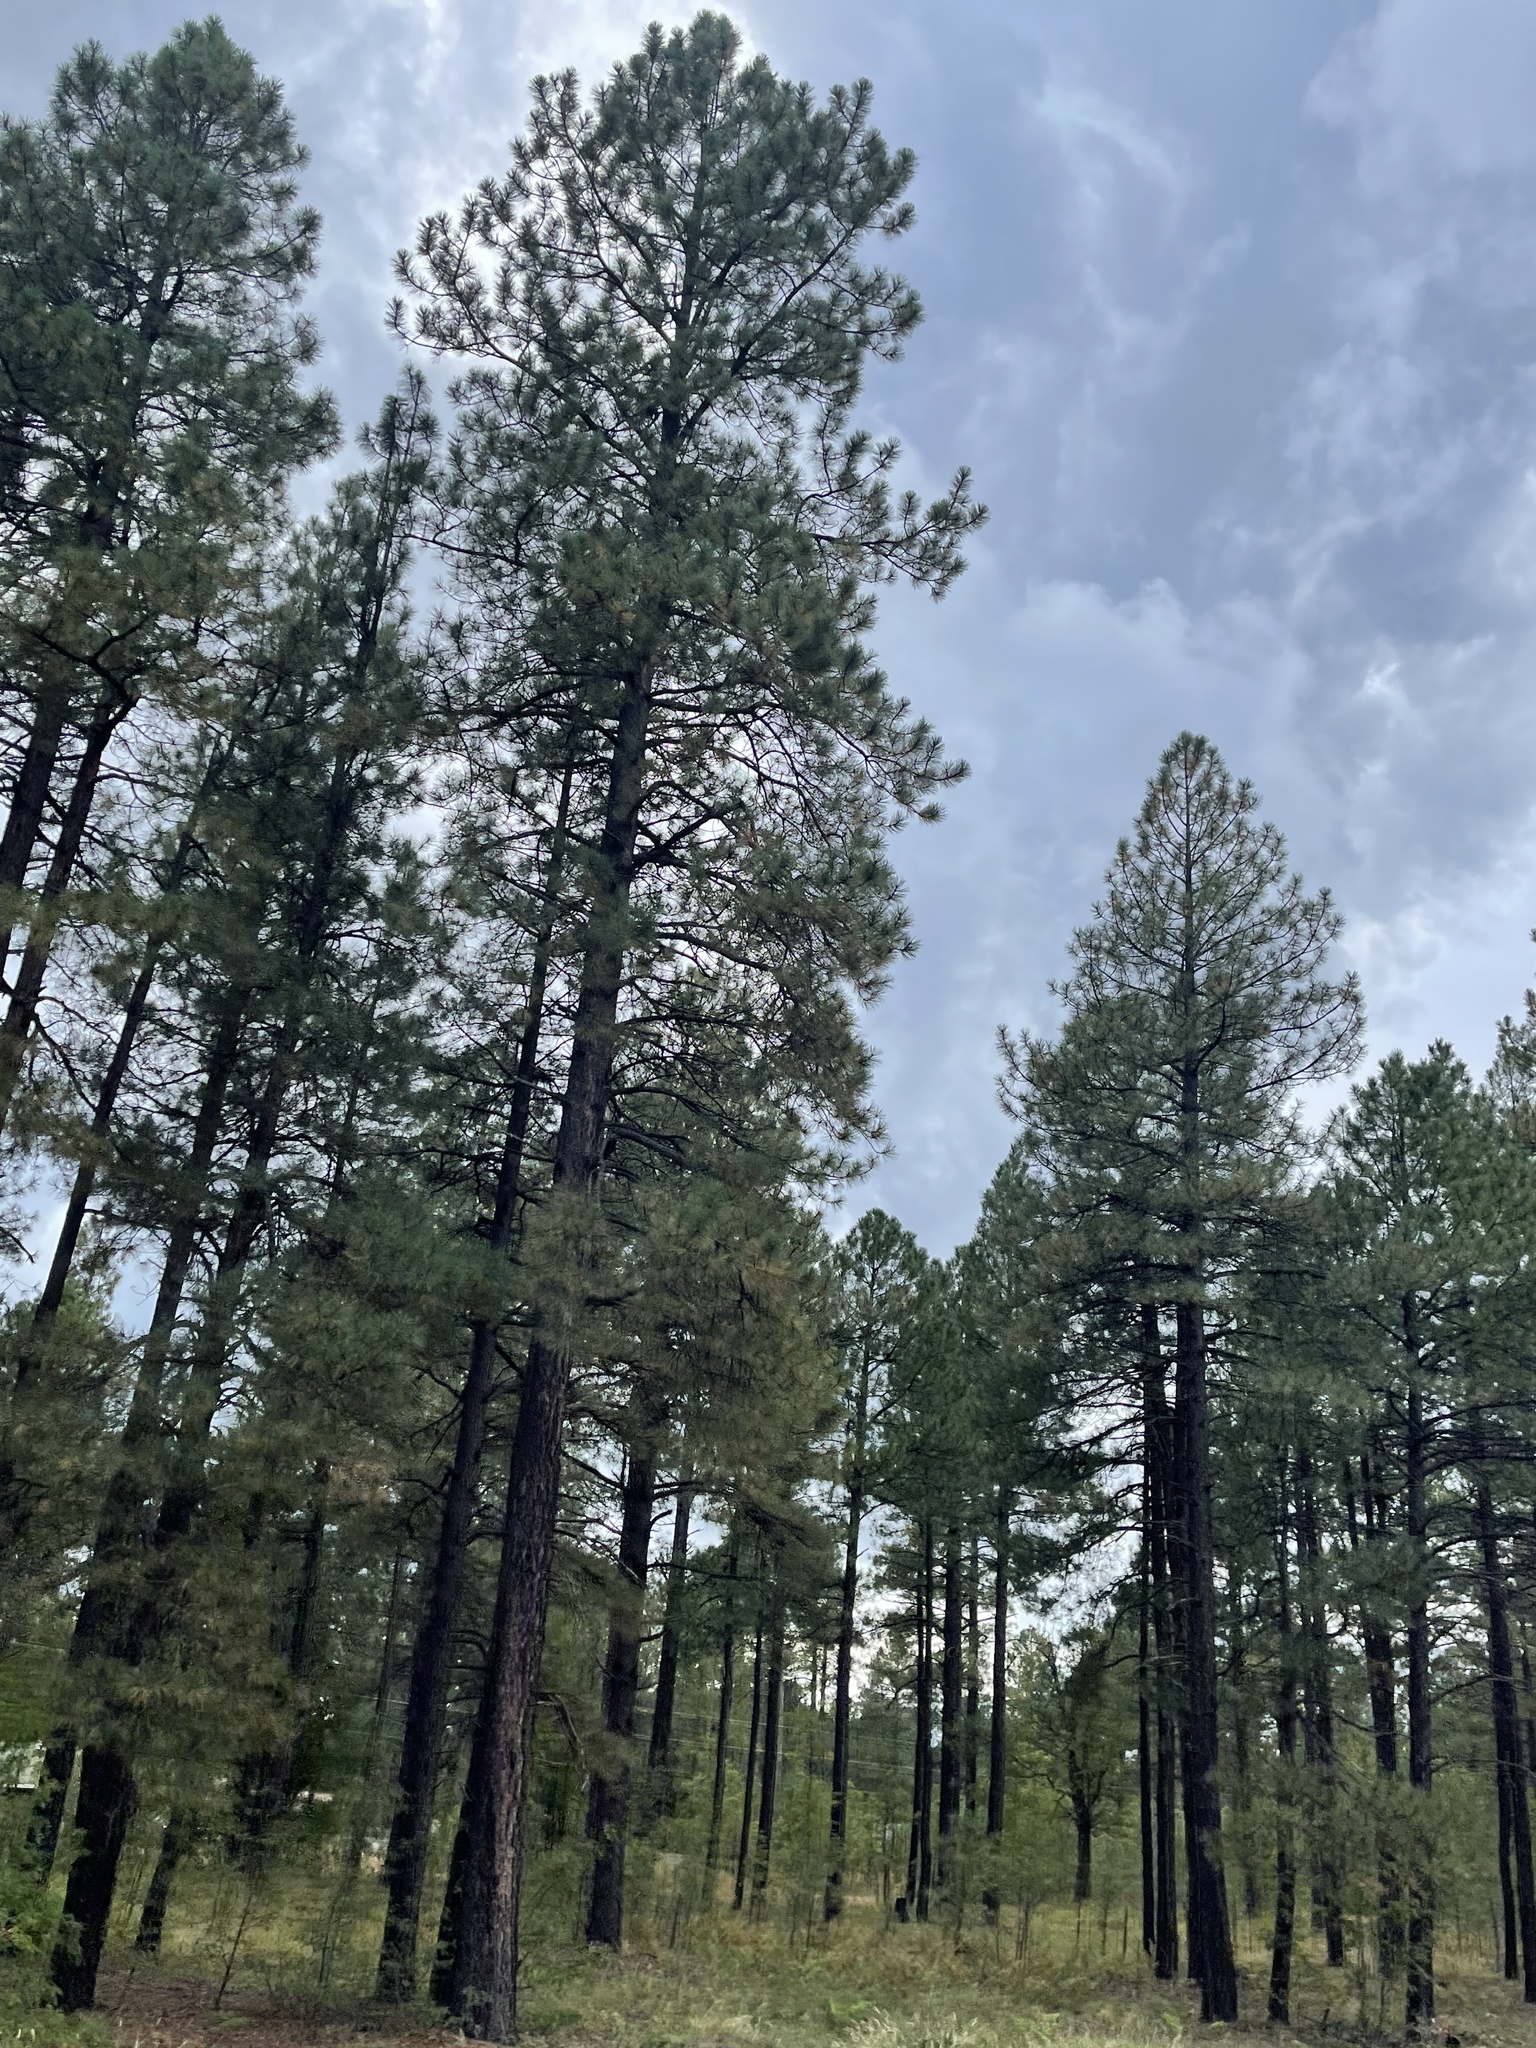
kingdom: Plantae
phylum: Tracheophyta
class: Pinopsida
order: Pinales
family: Pinaceae
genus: Pinus
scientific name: Pinus ponderosa
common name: Western yellow-pine
